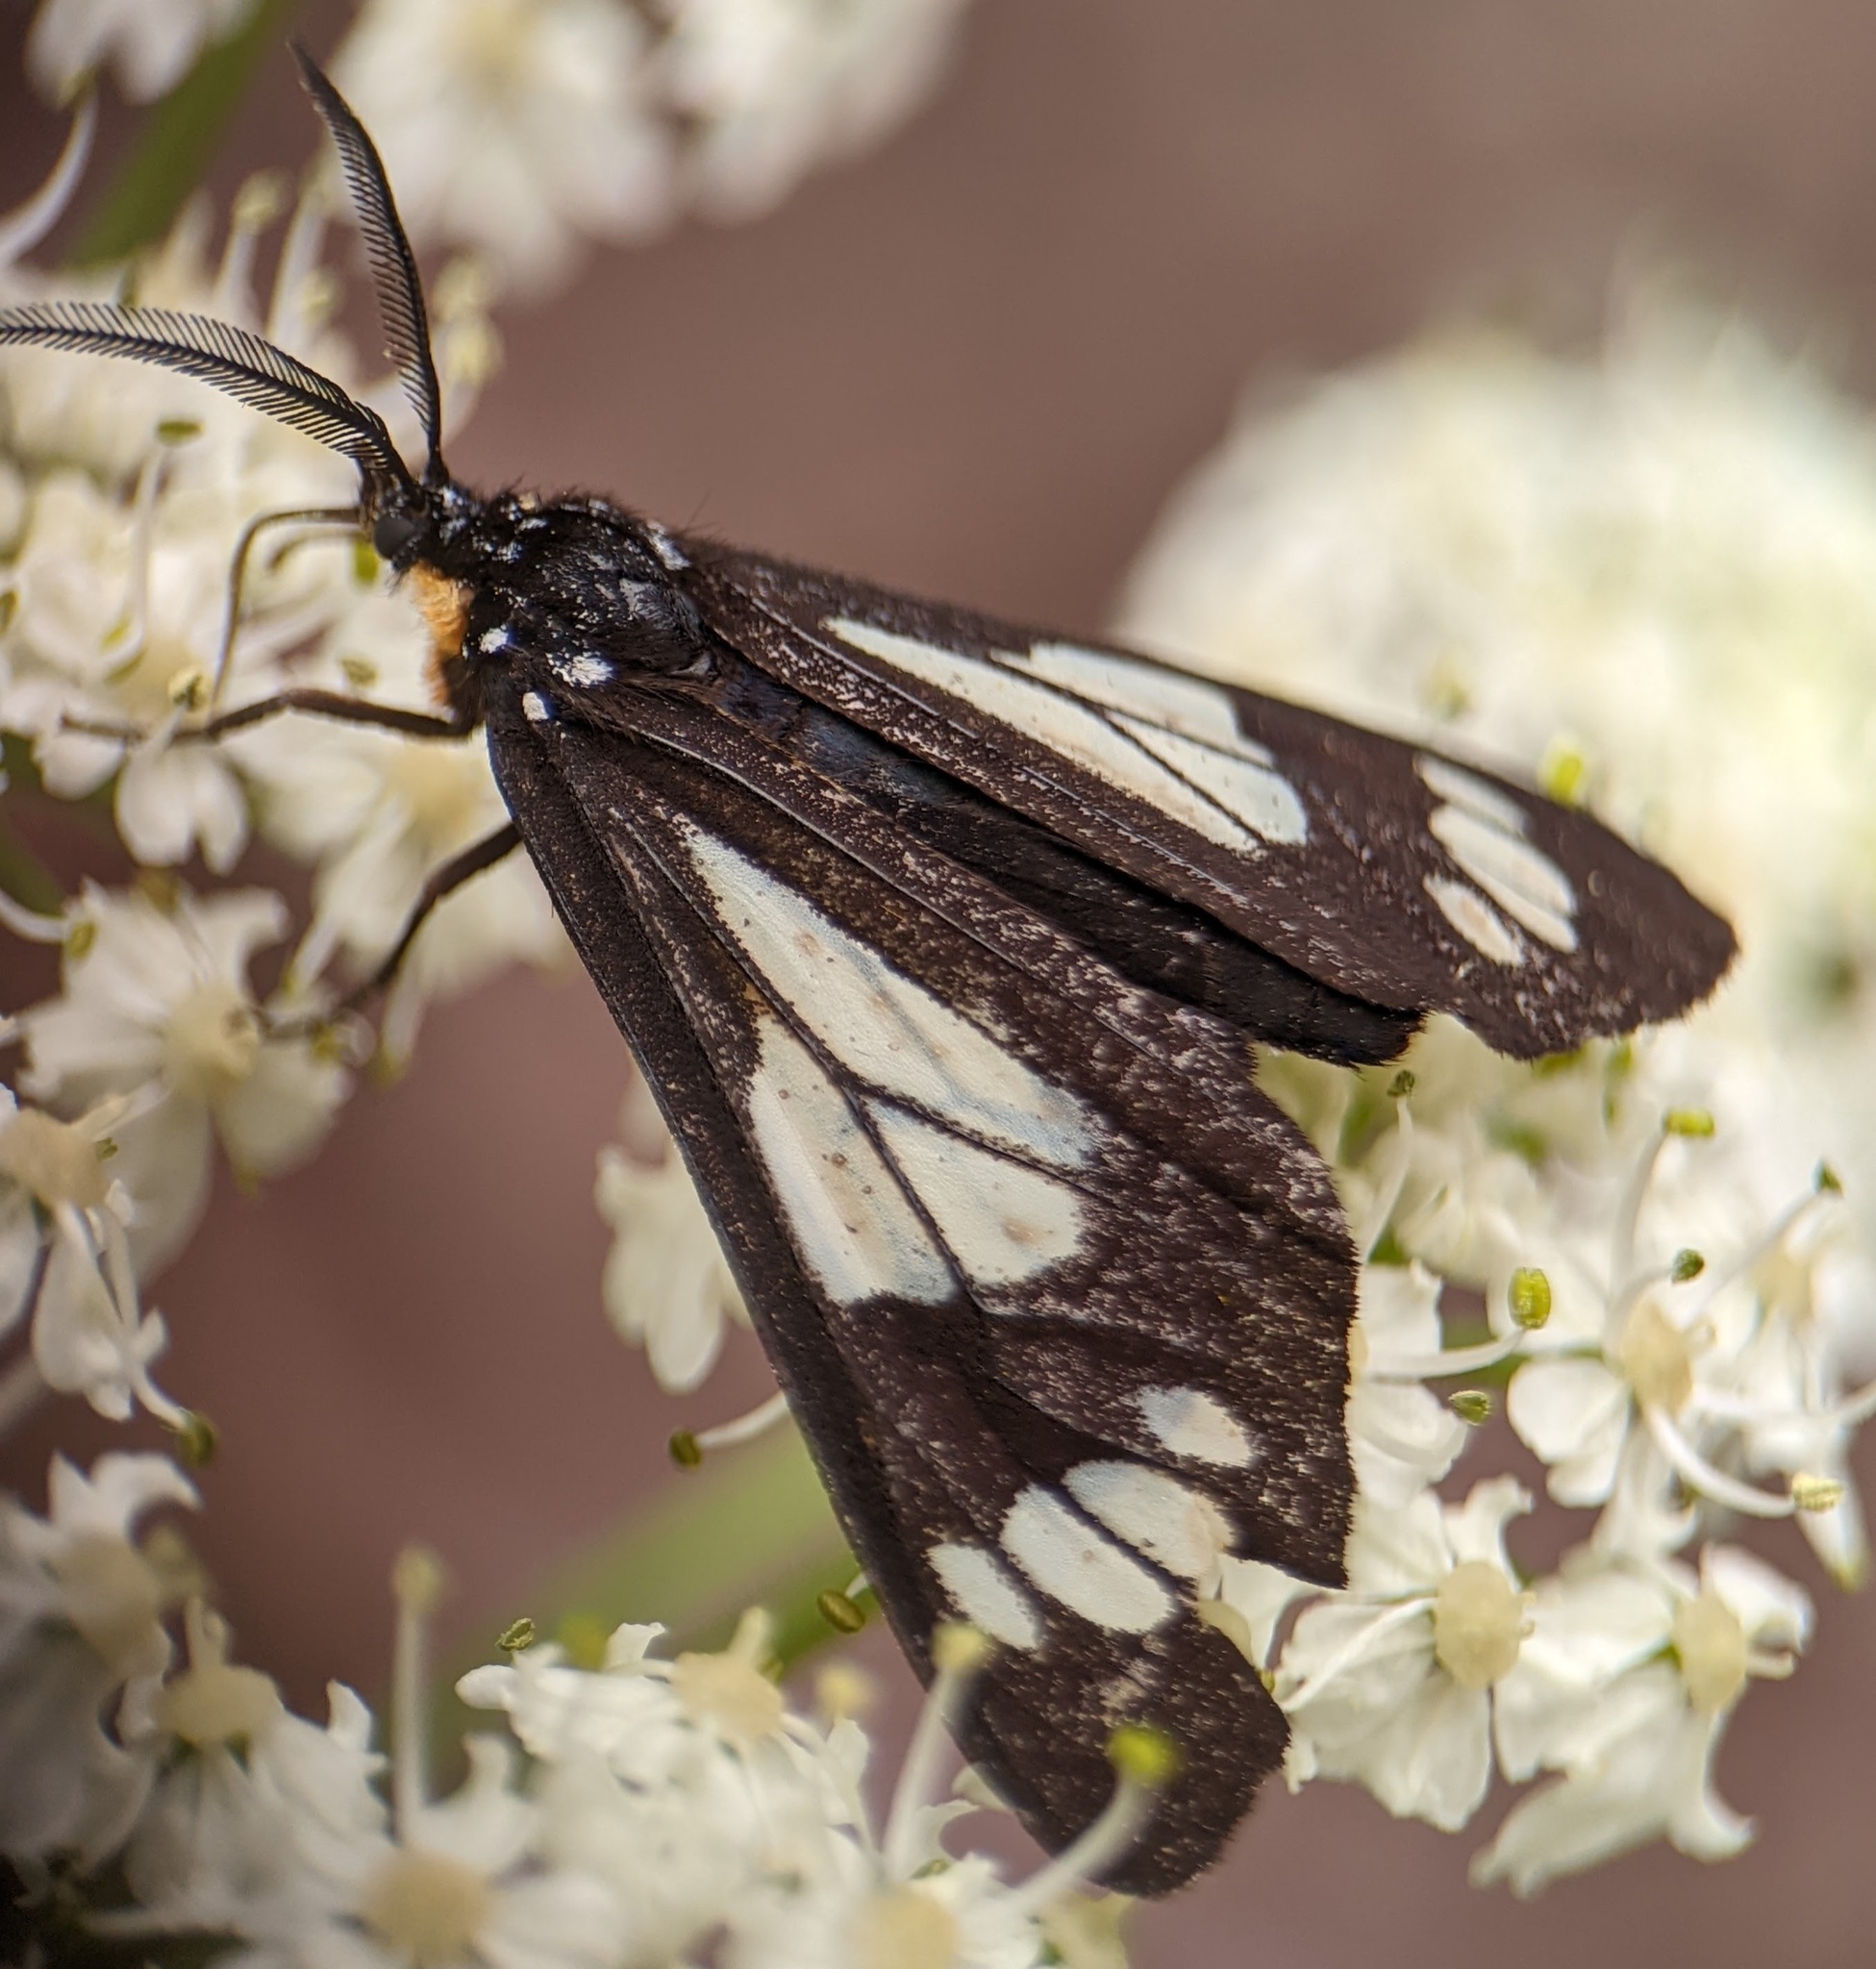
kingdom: Animalia
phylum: Arthropoda
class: Insecta
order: Lepidoptera
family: Erebidae
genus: Gnophaela
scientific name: Gnophaela vermiculata
